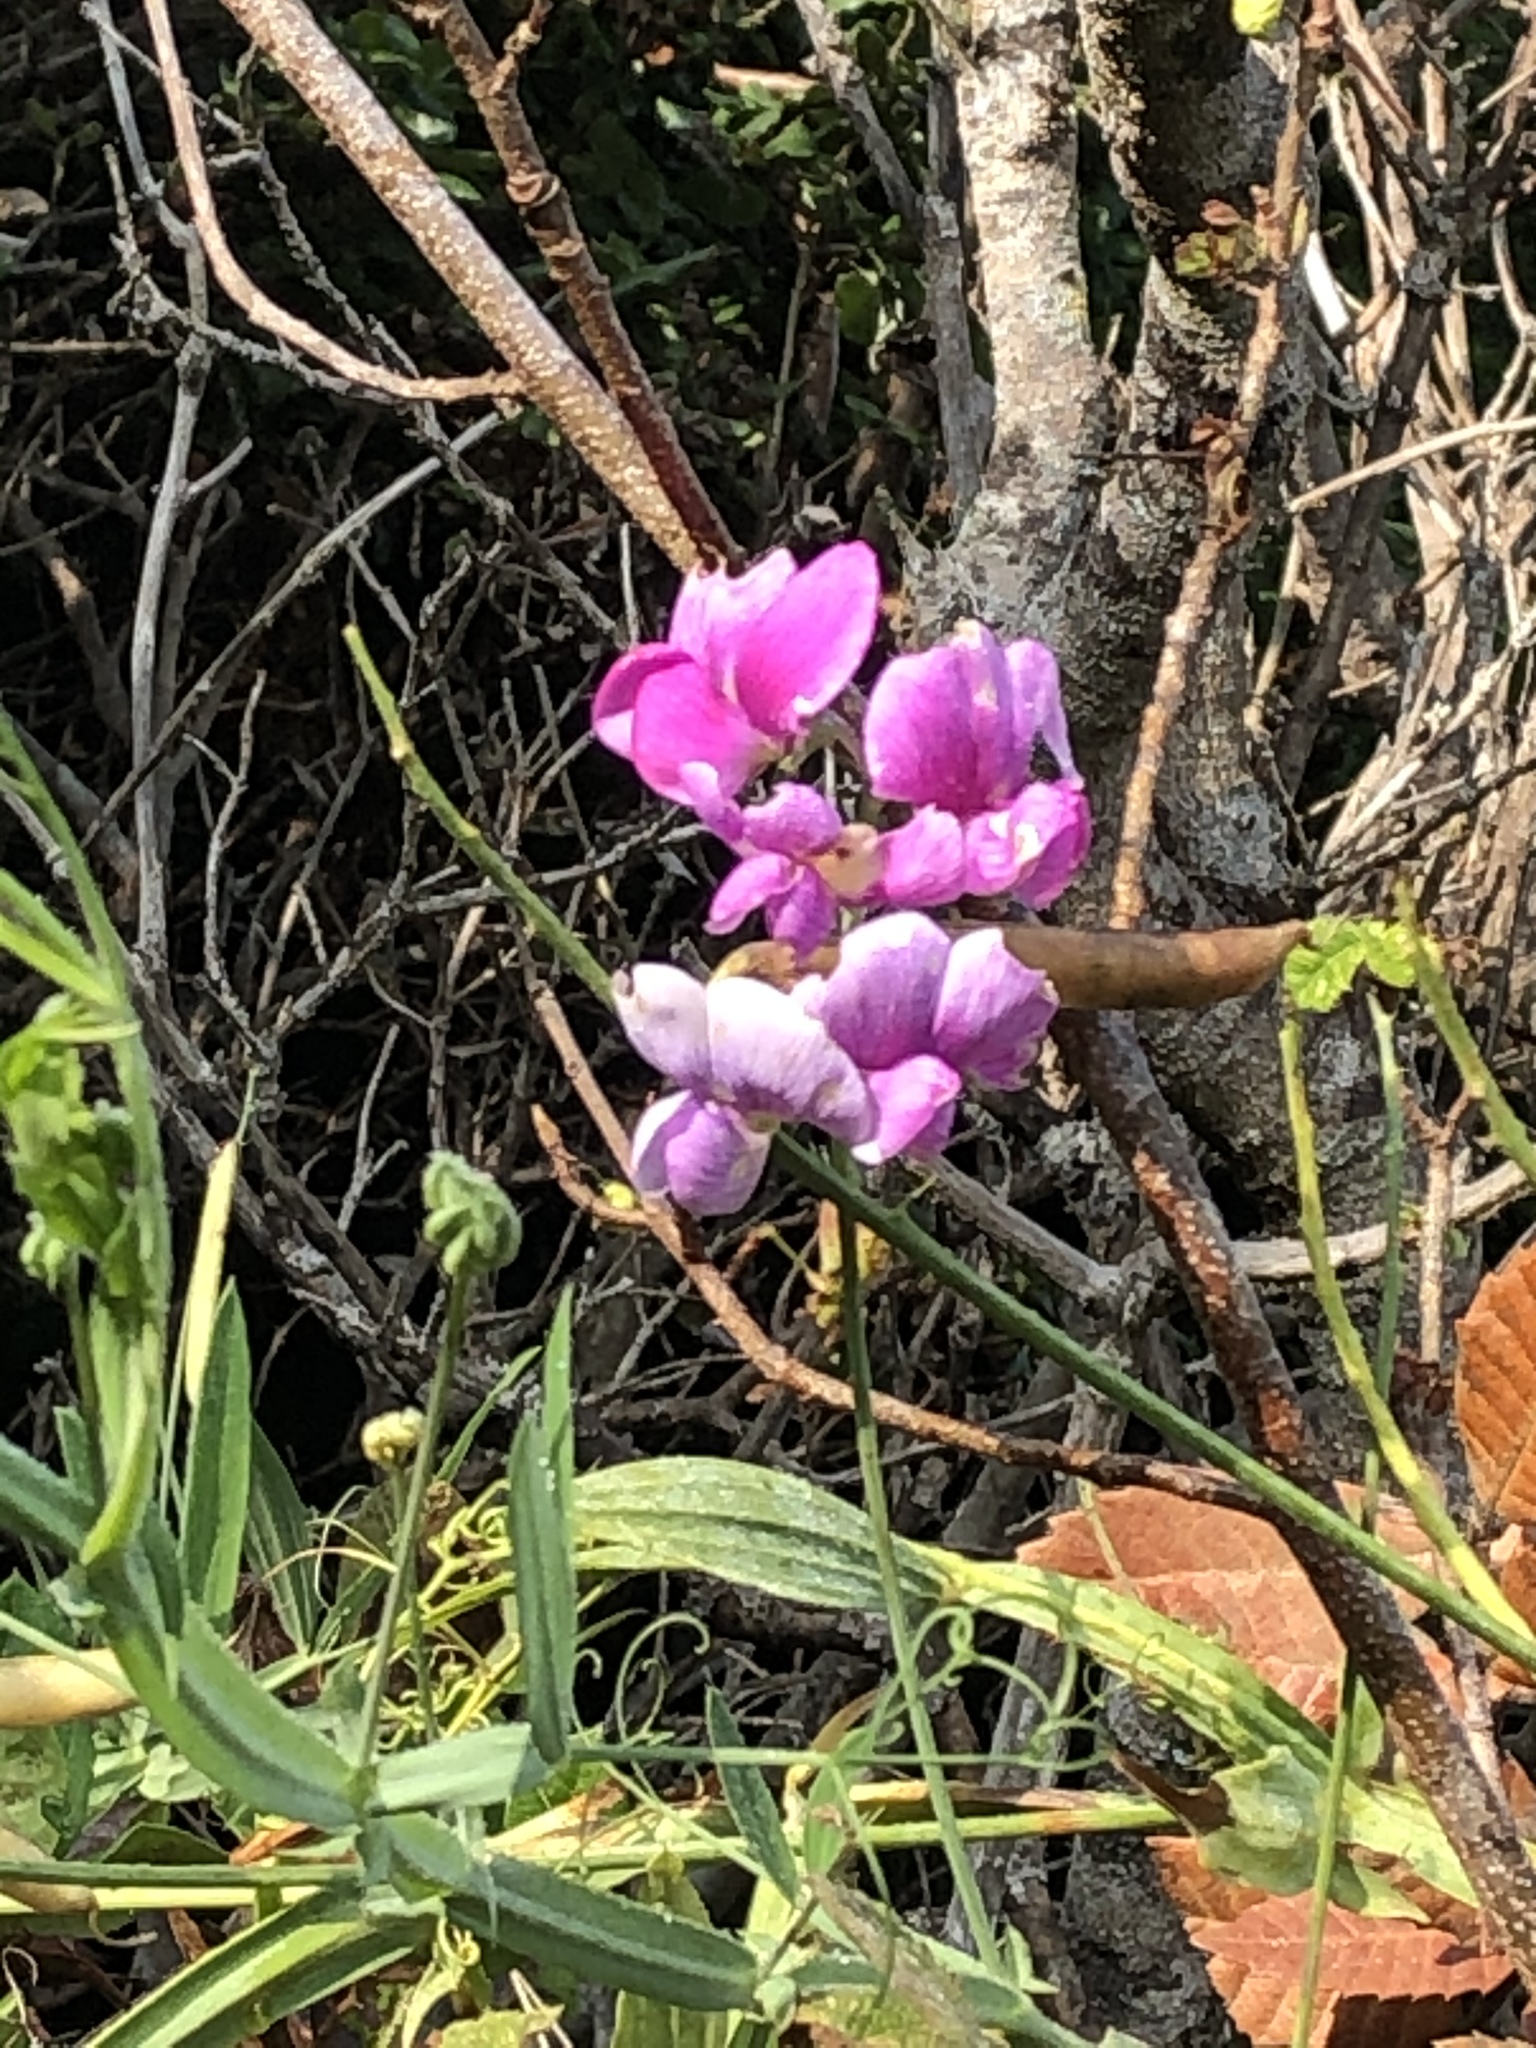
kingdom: Plantae
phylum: Tracheophyta
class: Magnoliopsida
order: Fabales
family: Fabaceae
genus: Lathyrus
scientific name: Lathyrus latifolius
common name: Perennial pea
